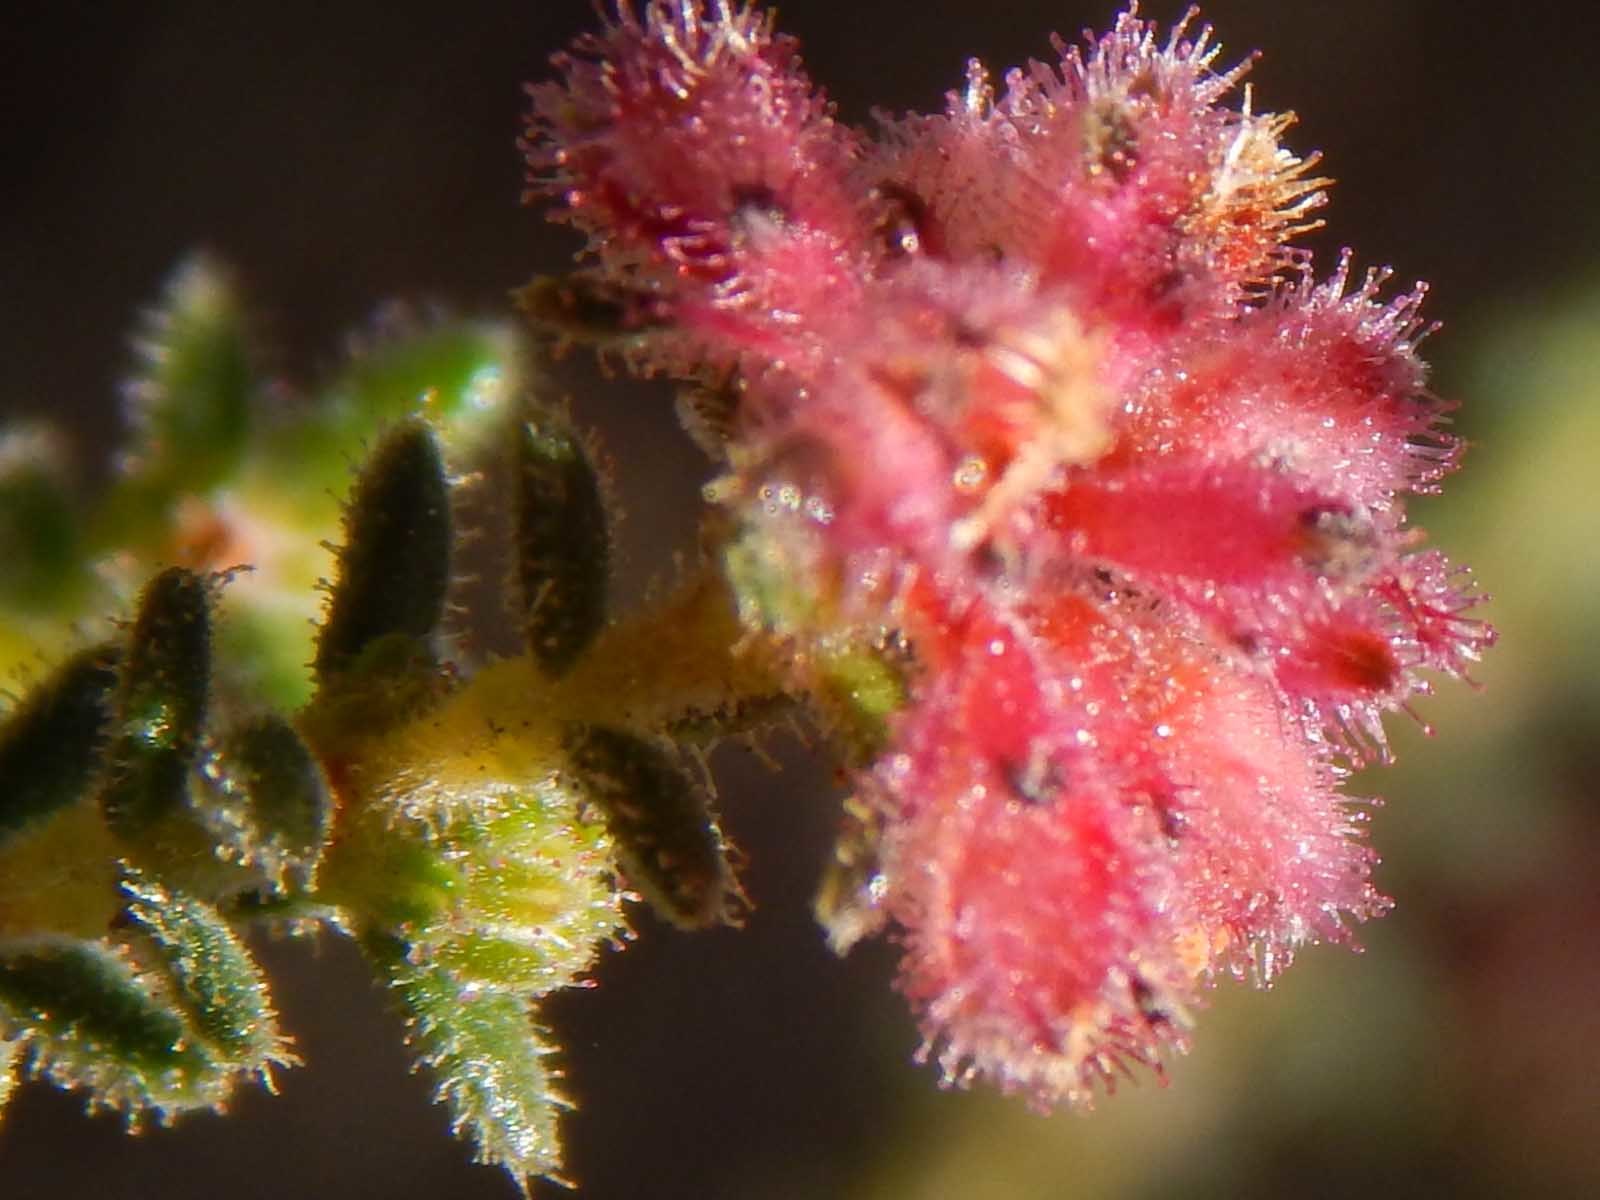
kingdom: Plantae
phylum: Tracheophyta
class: Magnoliopsida
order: Ericales
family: Ericaceae
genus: Erica
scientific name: Erica plumosa
